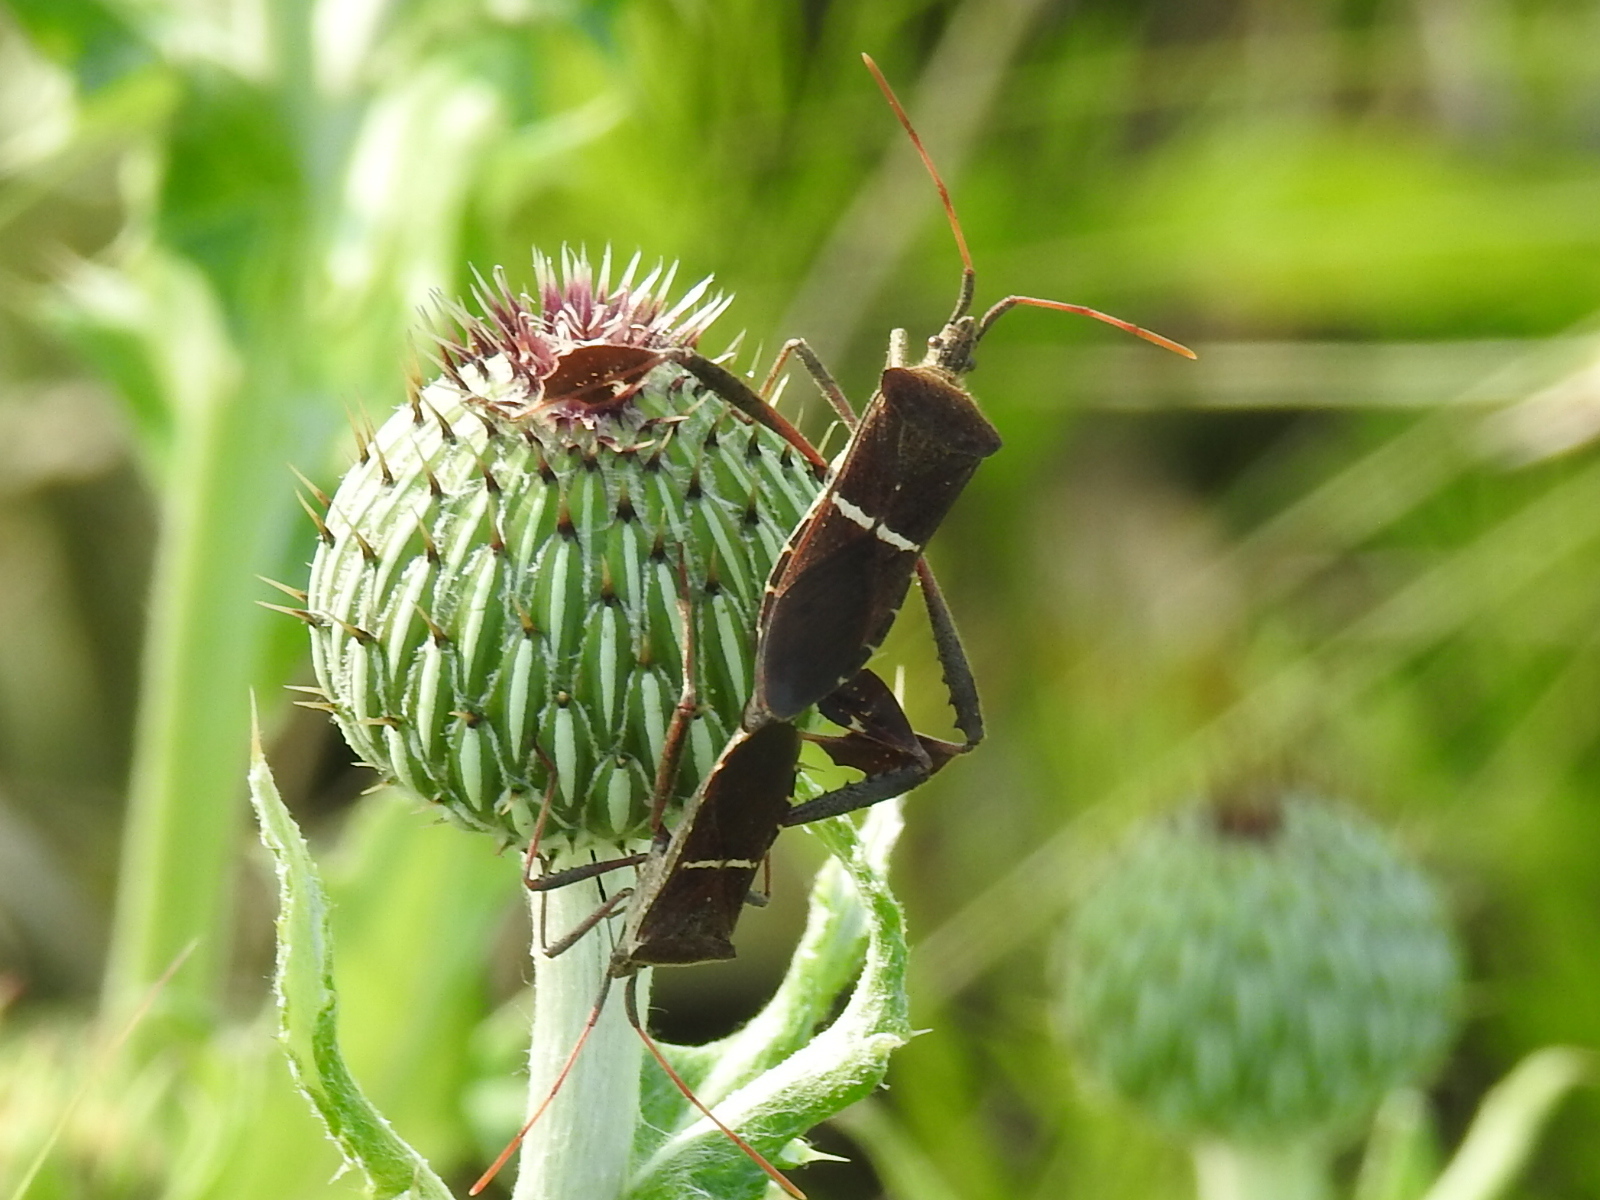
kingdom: Animalia
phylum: Arthropoda
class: Insecta
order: Hemiptera
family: Coreidae
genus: Leptoglossus
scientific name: Leptoglossus phyllopus
